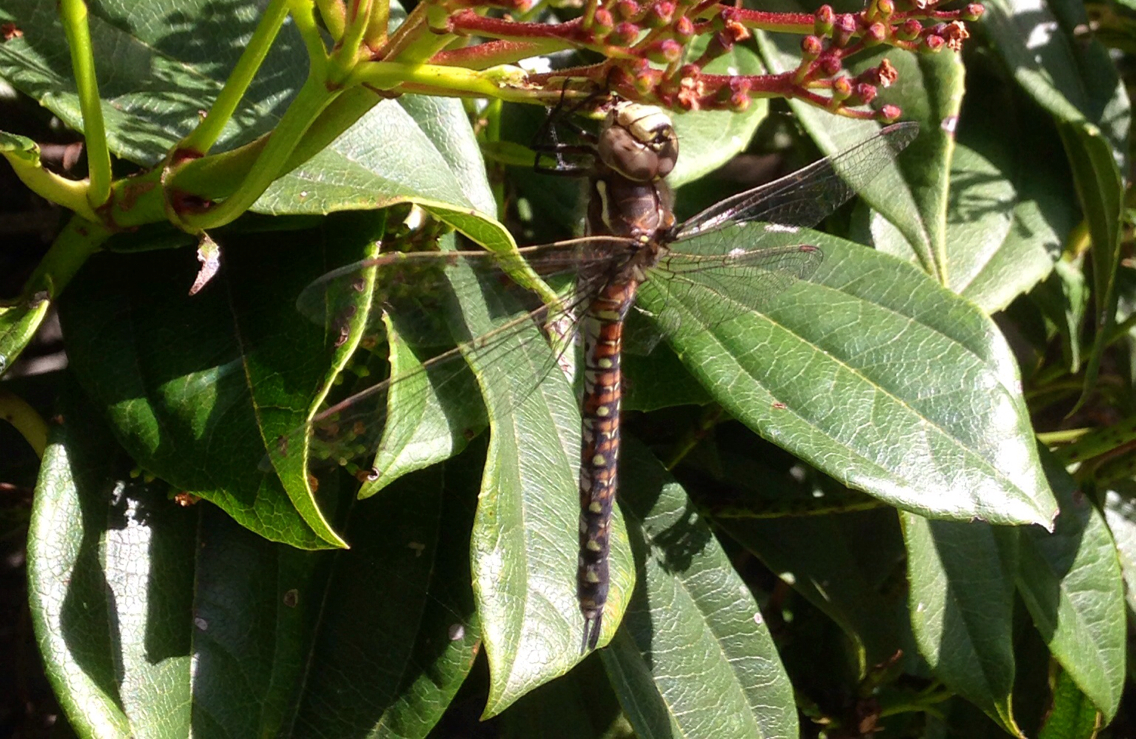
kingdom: Animalia
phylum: Arthropoda
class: Insecta
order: Odonata
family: Aeshnidae
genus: Rhionaeschna
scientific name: Rhionaeschna californica
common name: California darner
